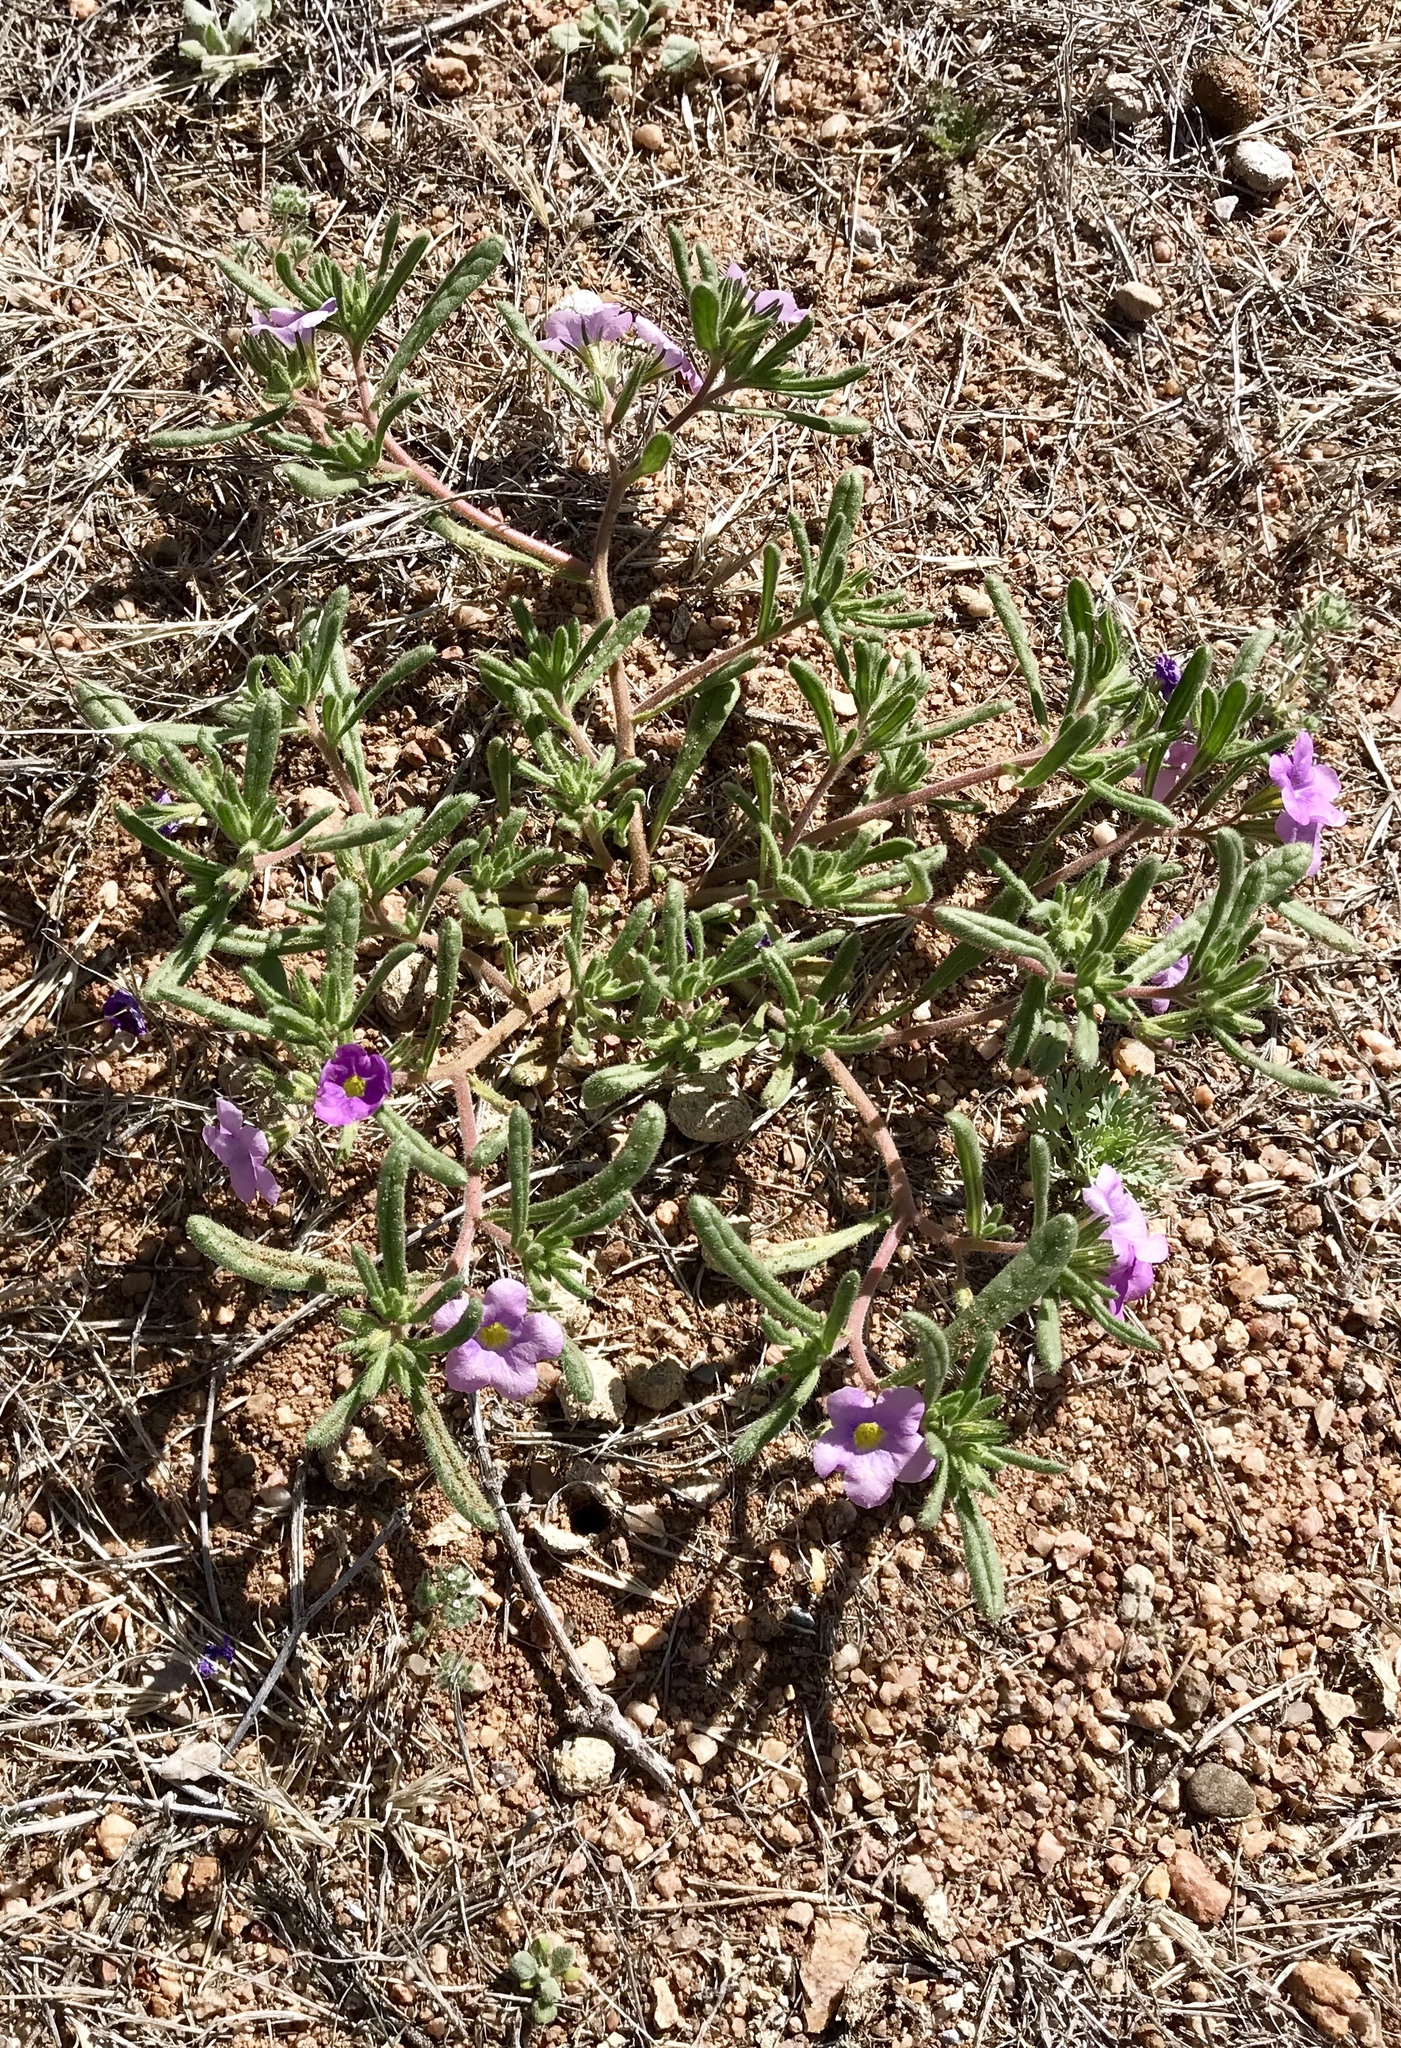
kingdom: Plantae
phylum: Tracheophyta
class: Magnoliopsida
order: Boraginales
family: Namaceae
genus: Nama
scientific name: Nama hispida
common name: Bristly nama
